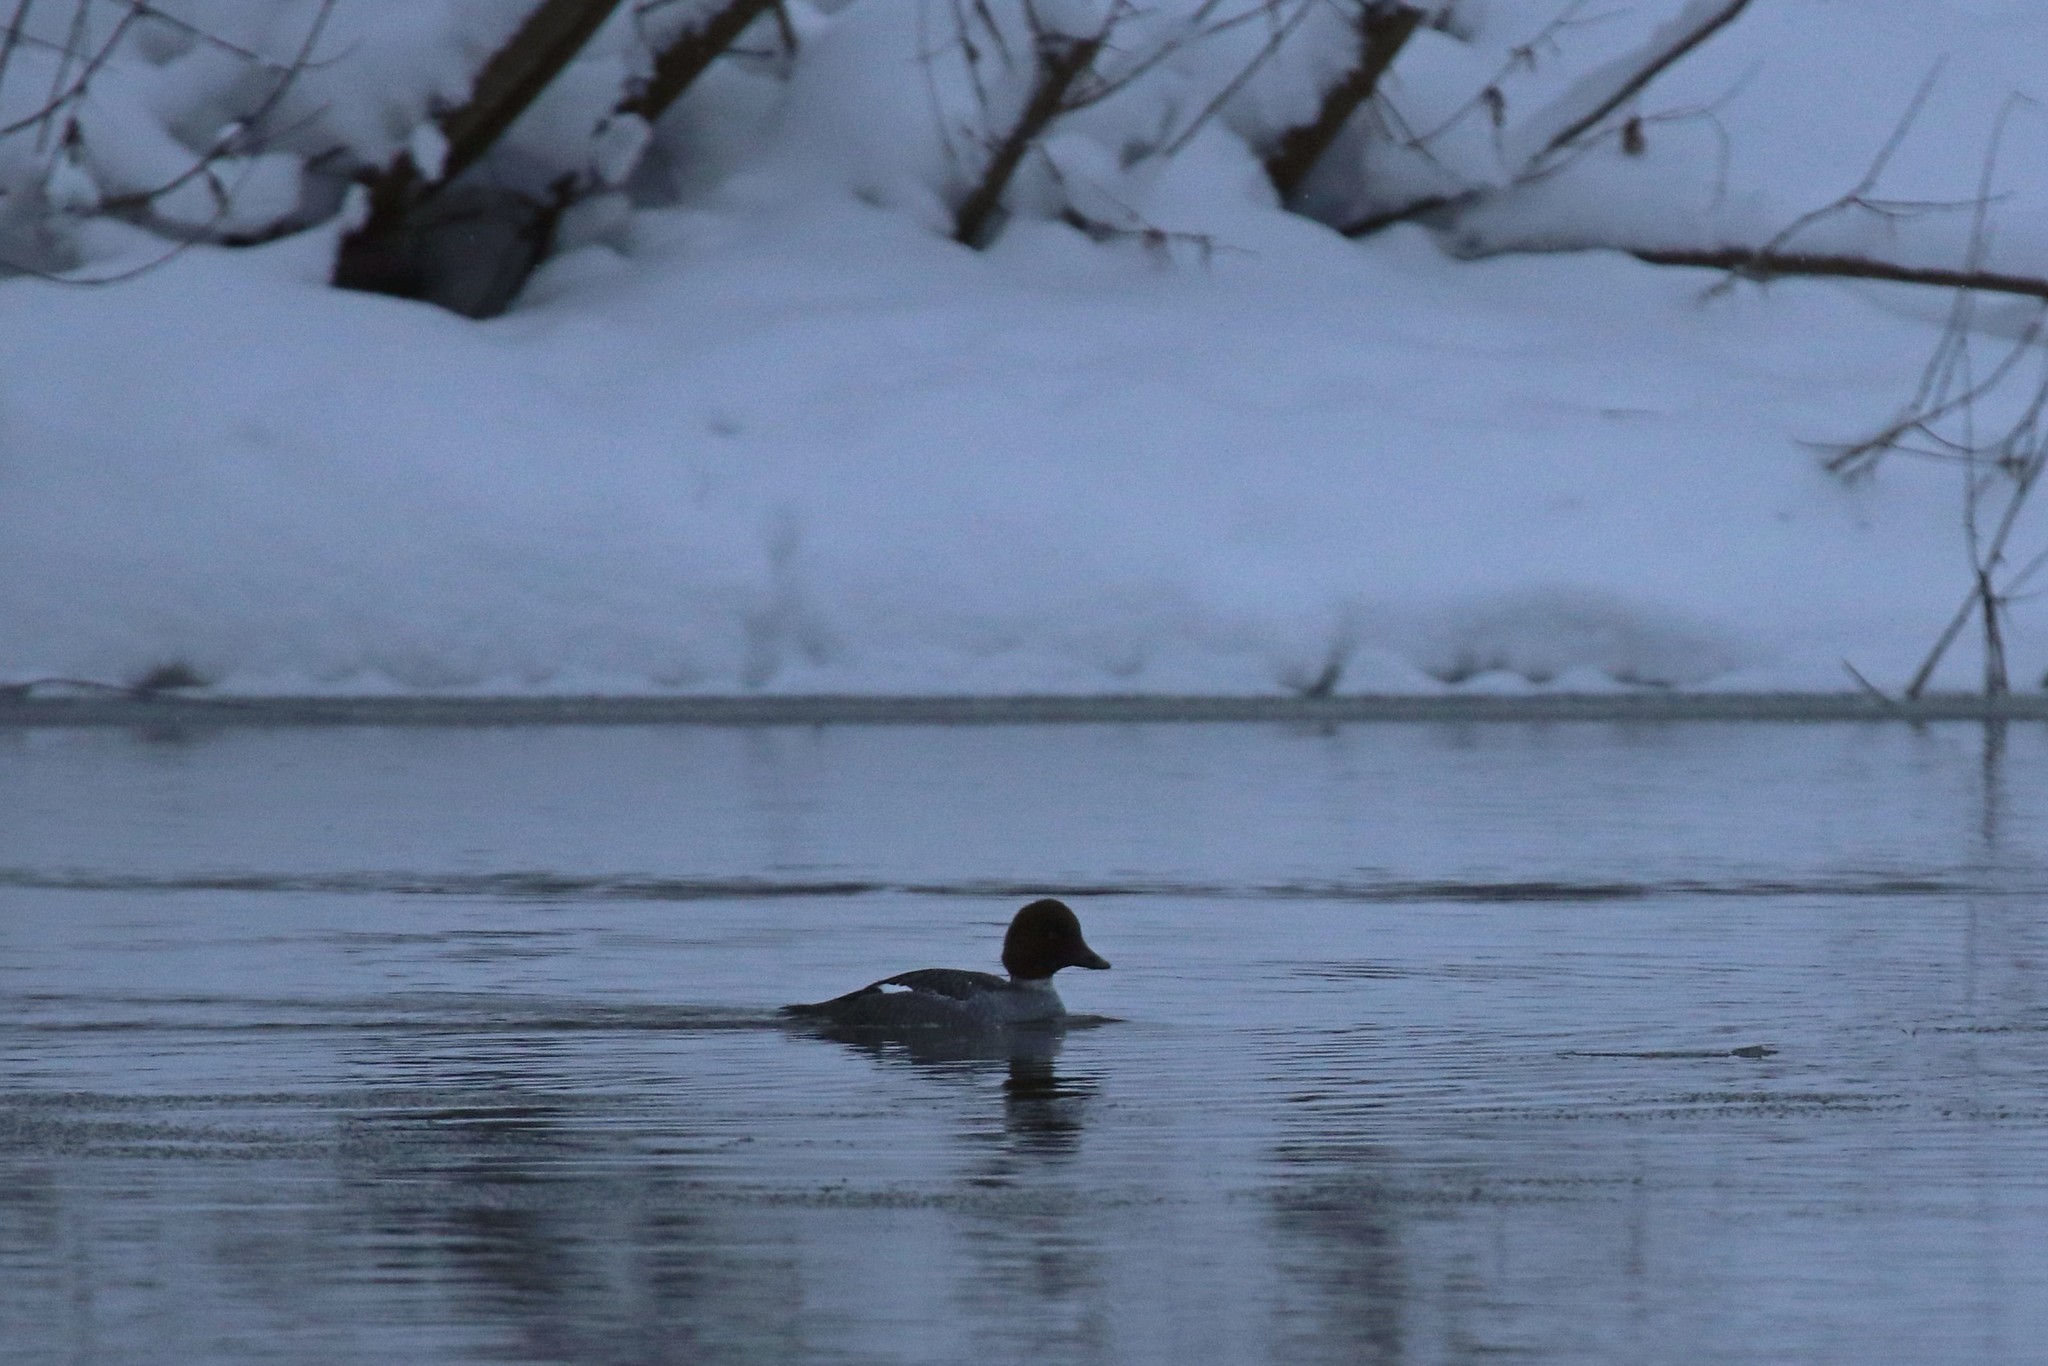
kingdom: Animalia
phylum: Chordata
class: Aves
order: Anseriformes
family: Anatidae
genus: Bucephala
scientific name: Bucephala clangula
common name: Common goldeneye
